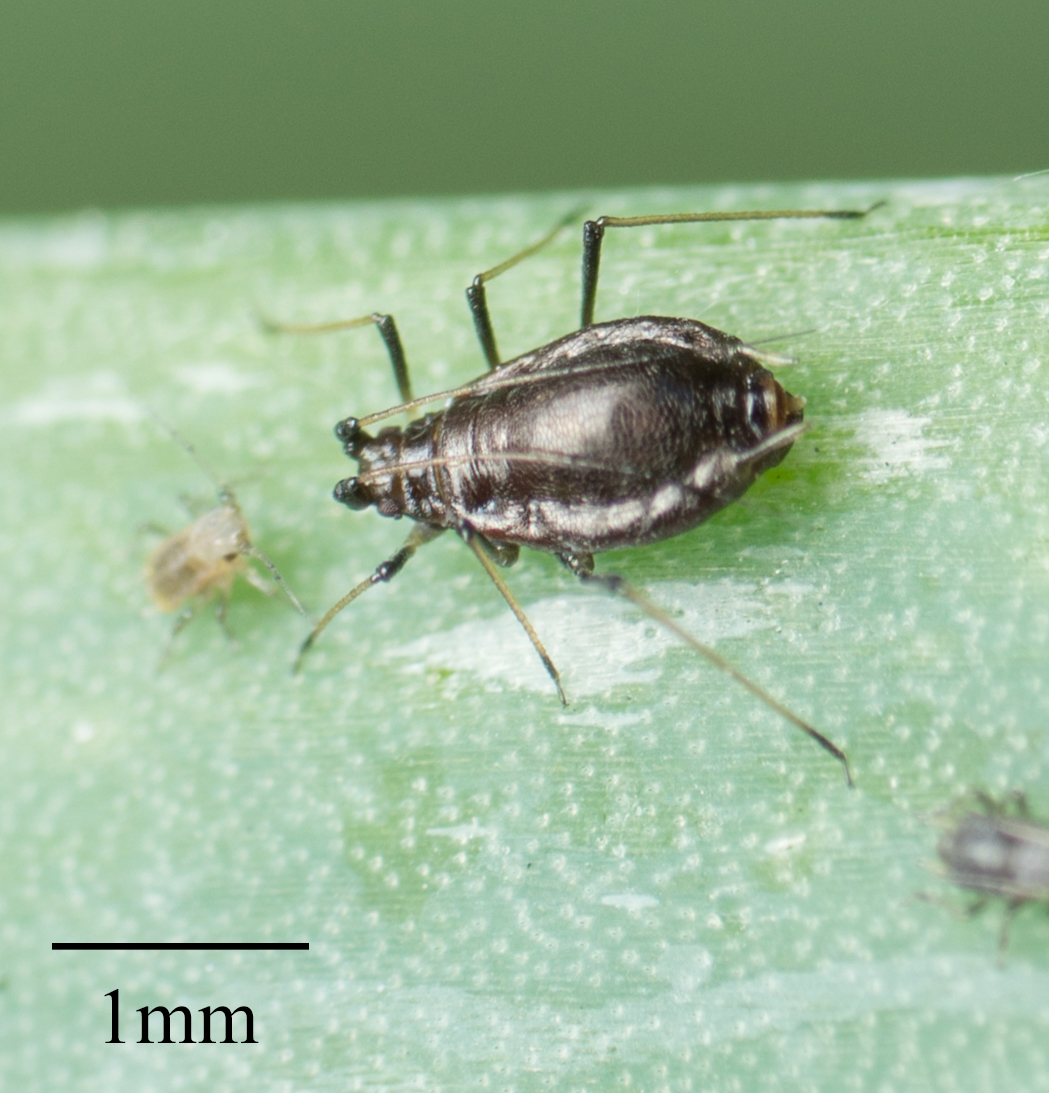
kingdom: Animalia
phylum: Arthropoda
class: Insecta
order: Hemiptera
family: Aphididae
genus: Neotoxoptera
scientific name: Neotoxoptera formosana
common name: Onion aphid
